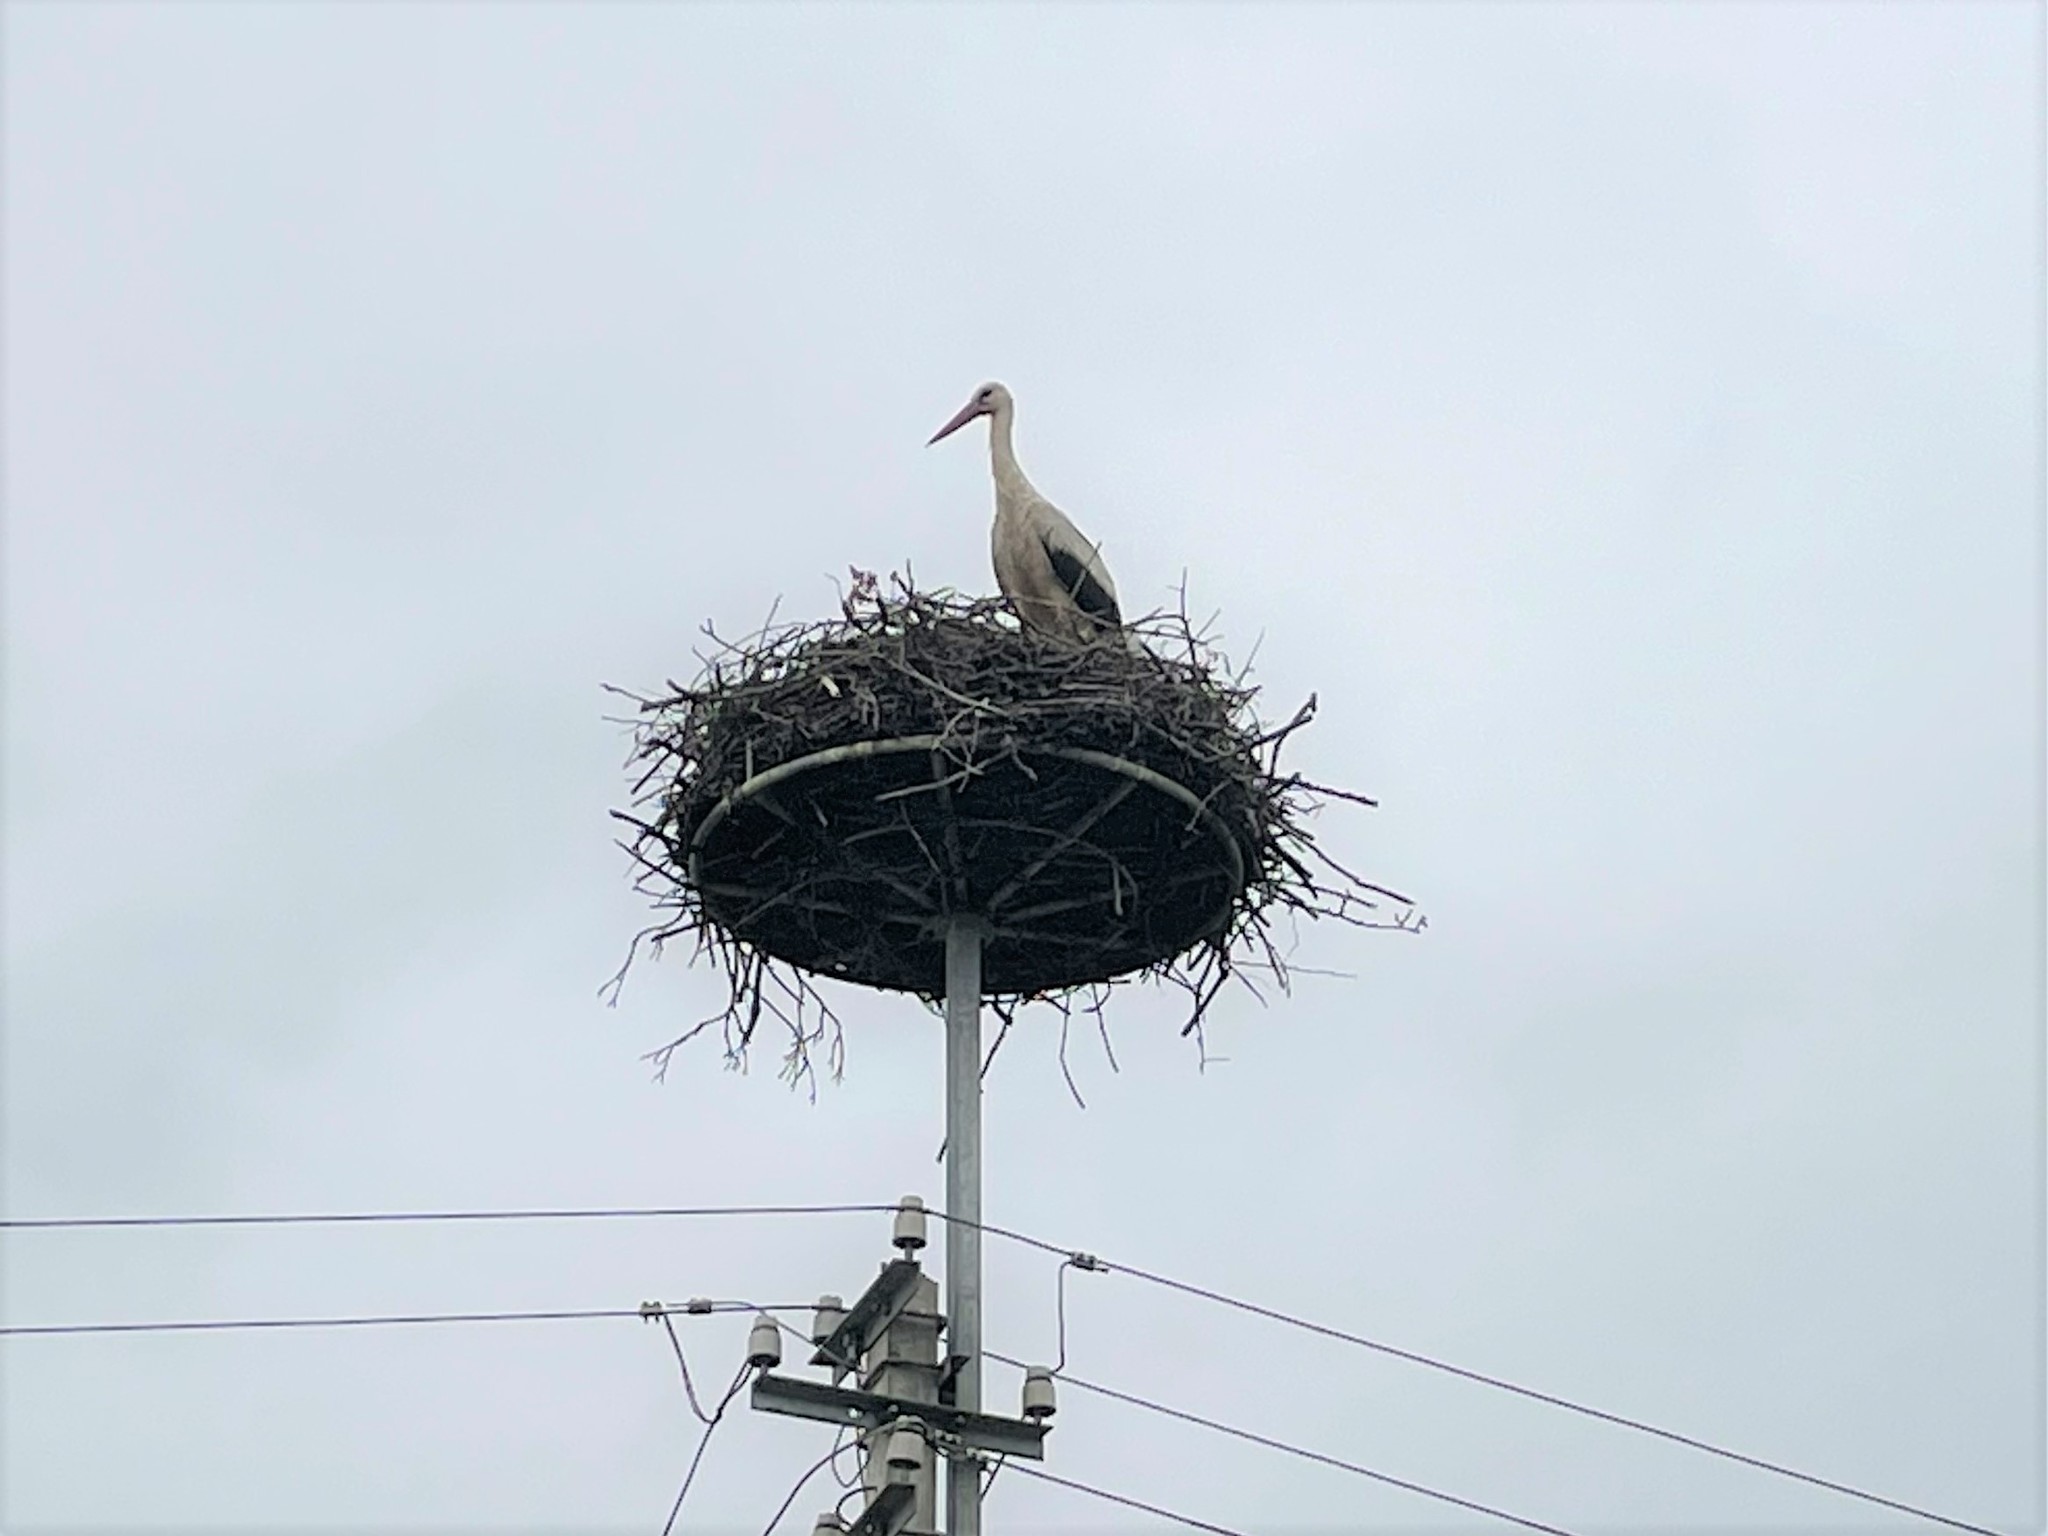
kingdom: Animalia
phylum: Chordata
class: Aves
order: Ciconiiformes
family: Ciconiidae
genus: Ciconia
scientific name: Ciconia ciconia
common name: White stork
